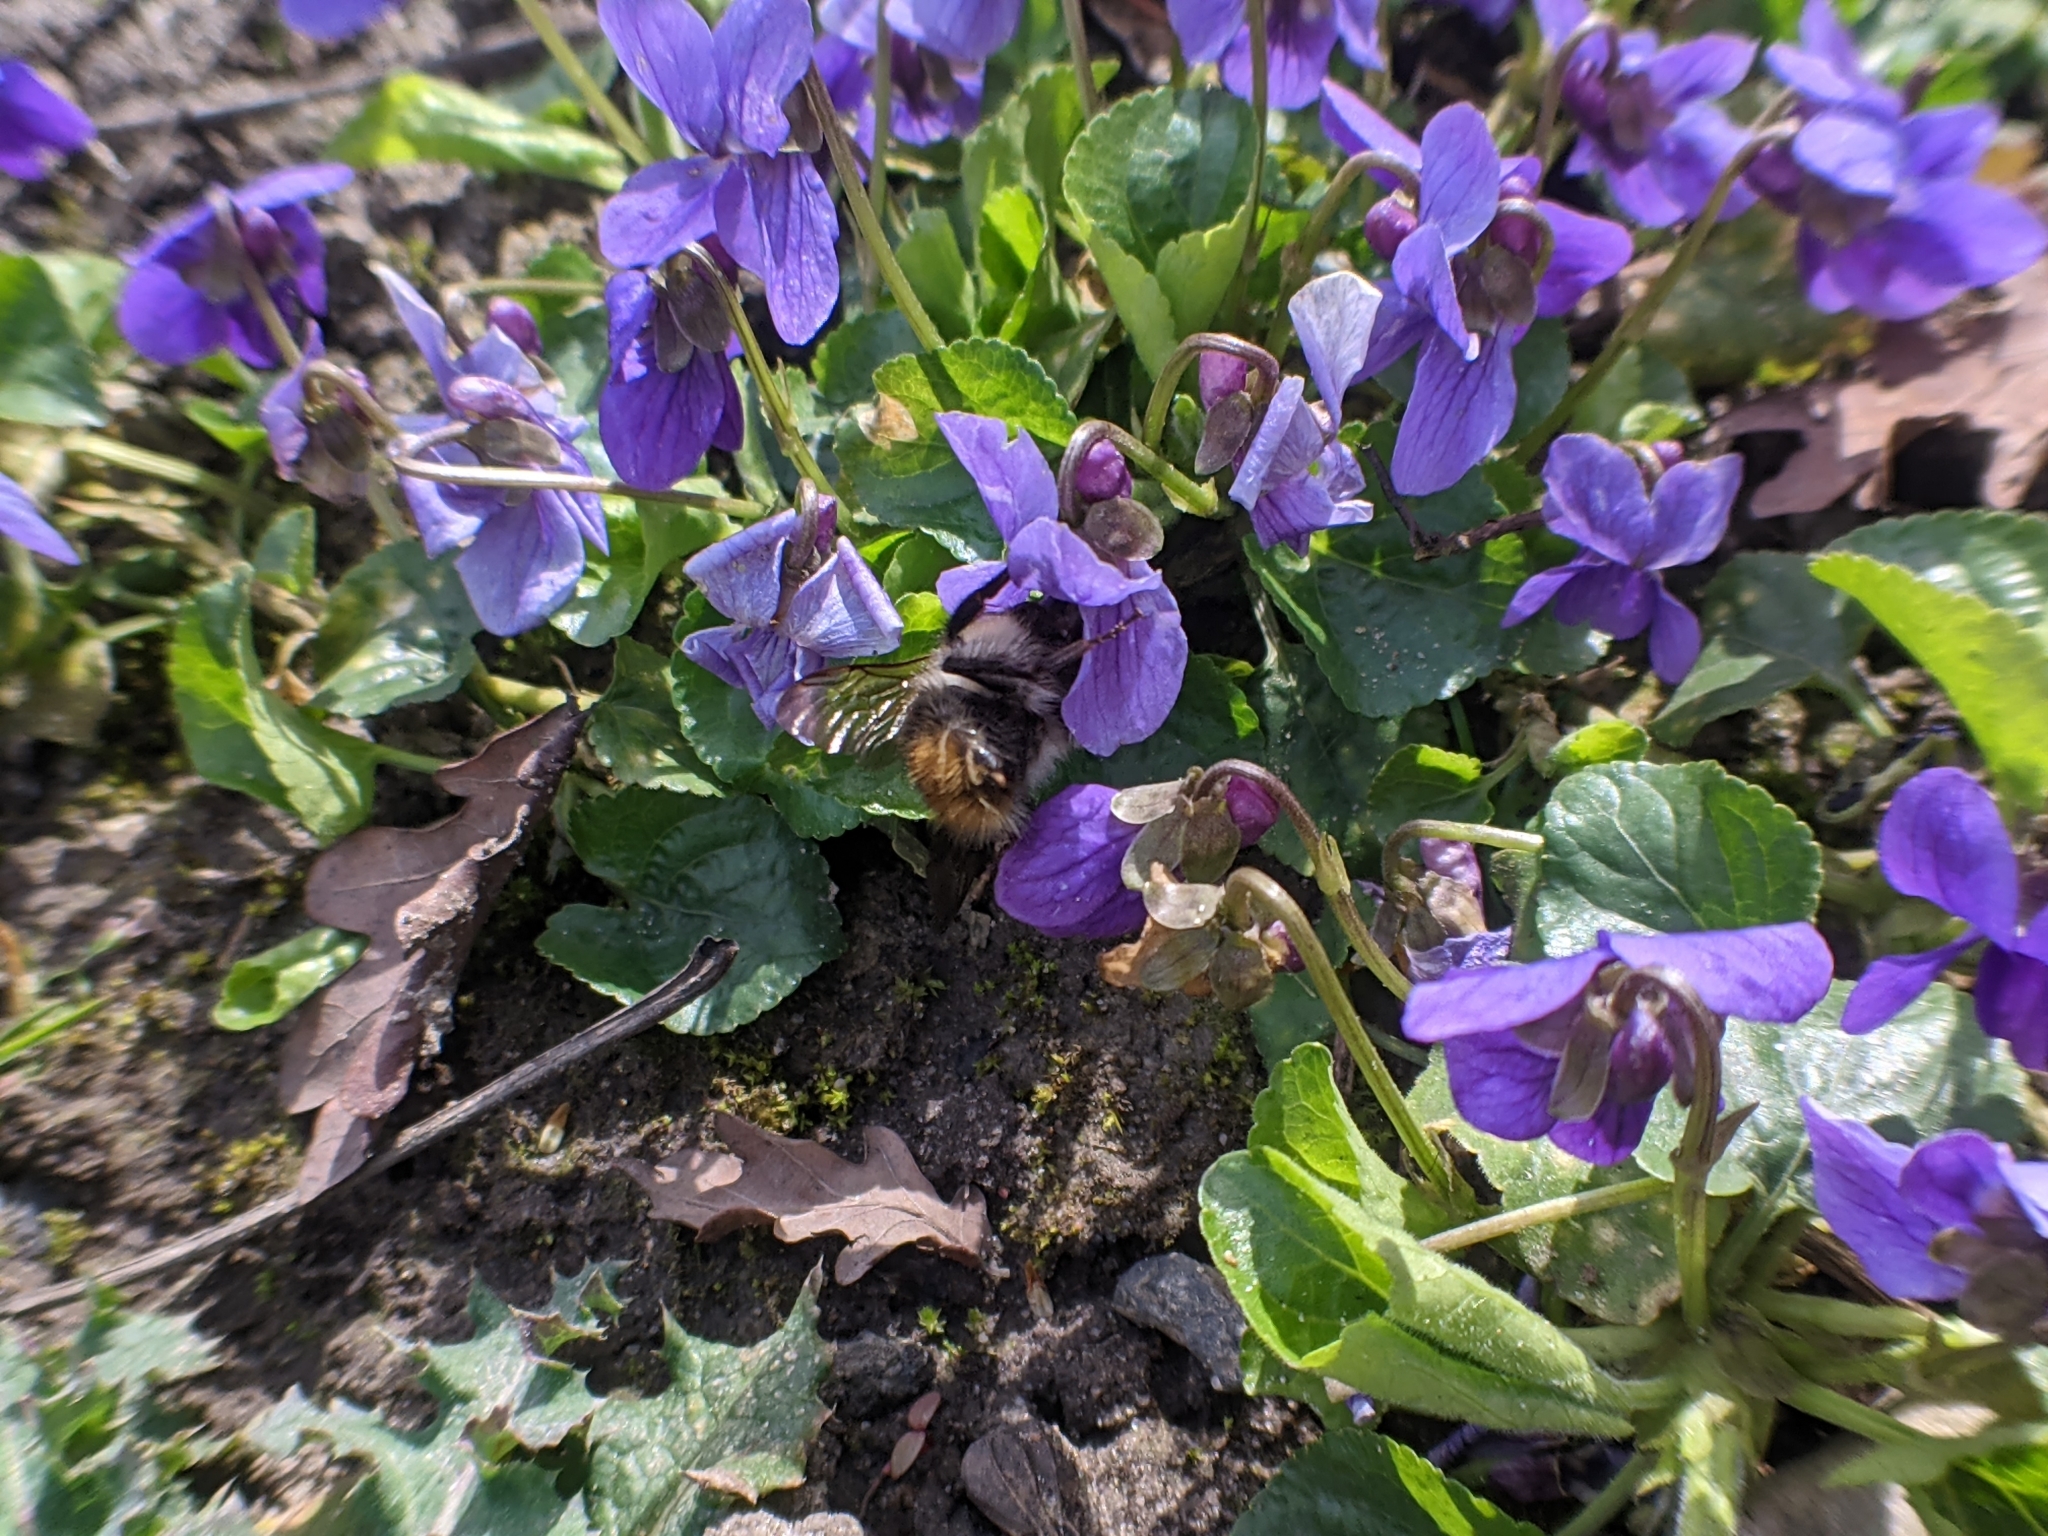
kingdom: Animalia
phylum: Arthropoda
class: Insecta
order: Hymenoptera
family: Apidae
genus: Bombus
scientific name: Bombus pascuorum
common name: Common carder bee
